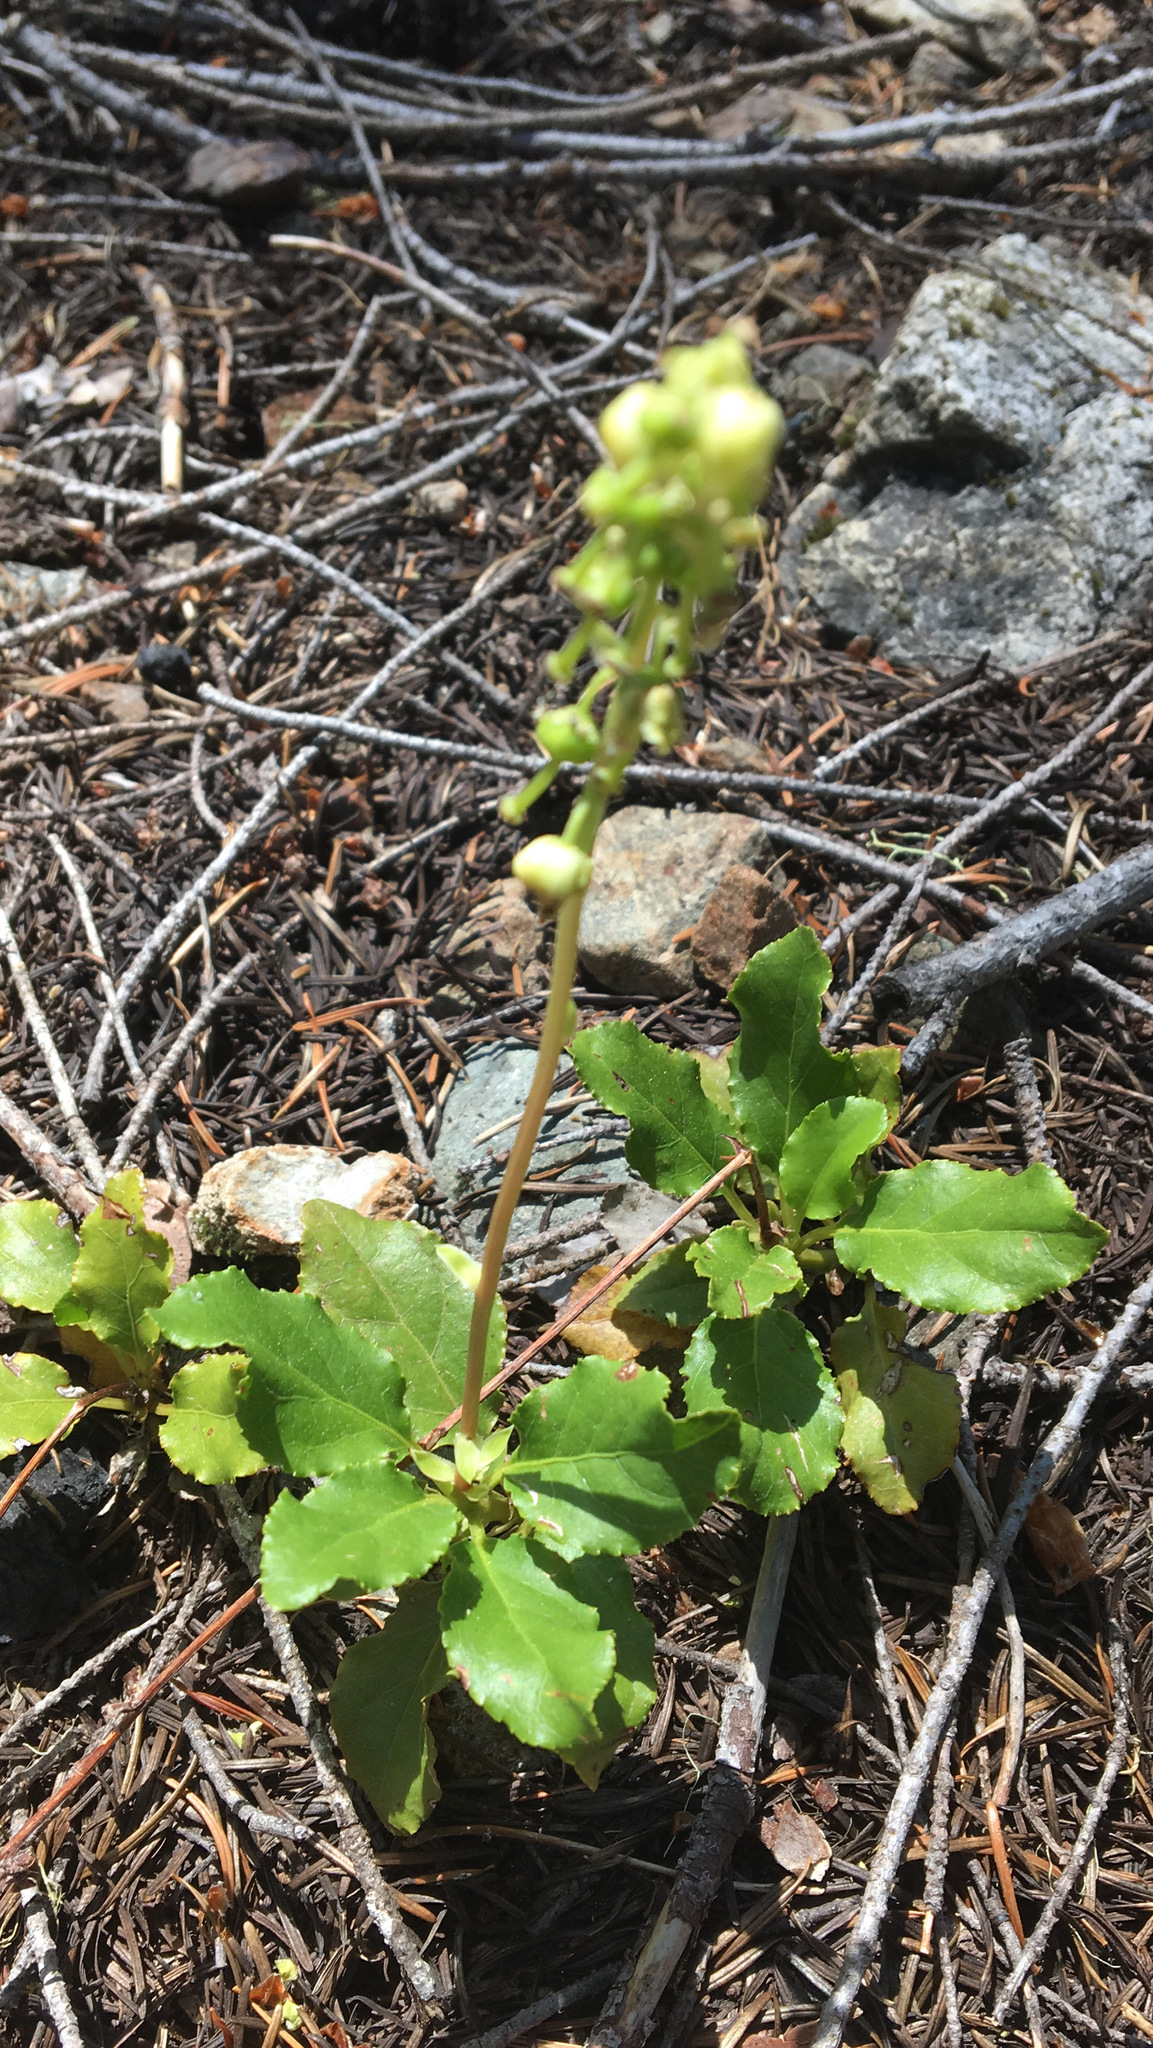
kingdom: Plantae
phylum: Tracheophyta
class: Magnoliopsida
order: Ericales
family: Ericaceae
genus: Orthilia
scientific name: Orthilia secunda
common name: One-sided orthilia
